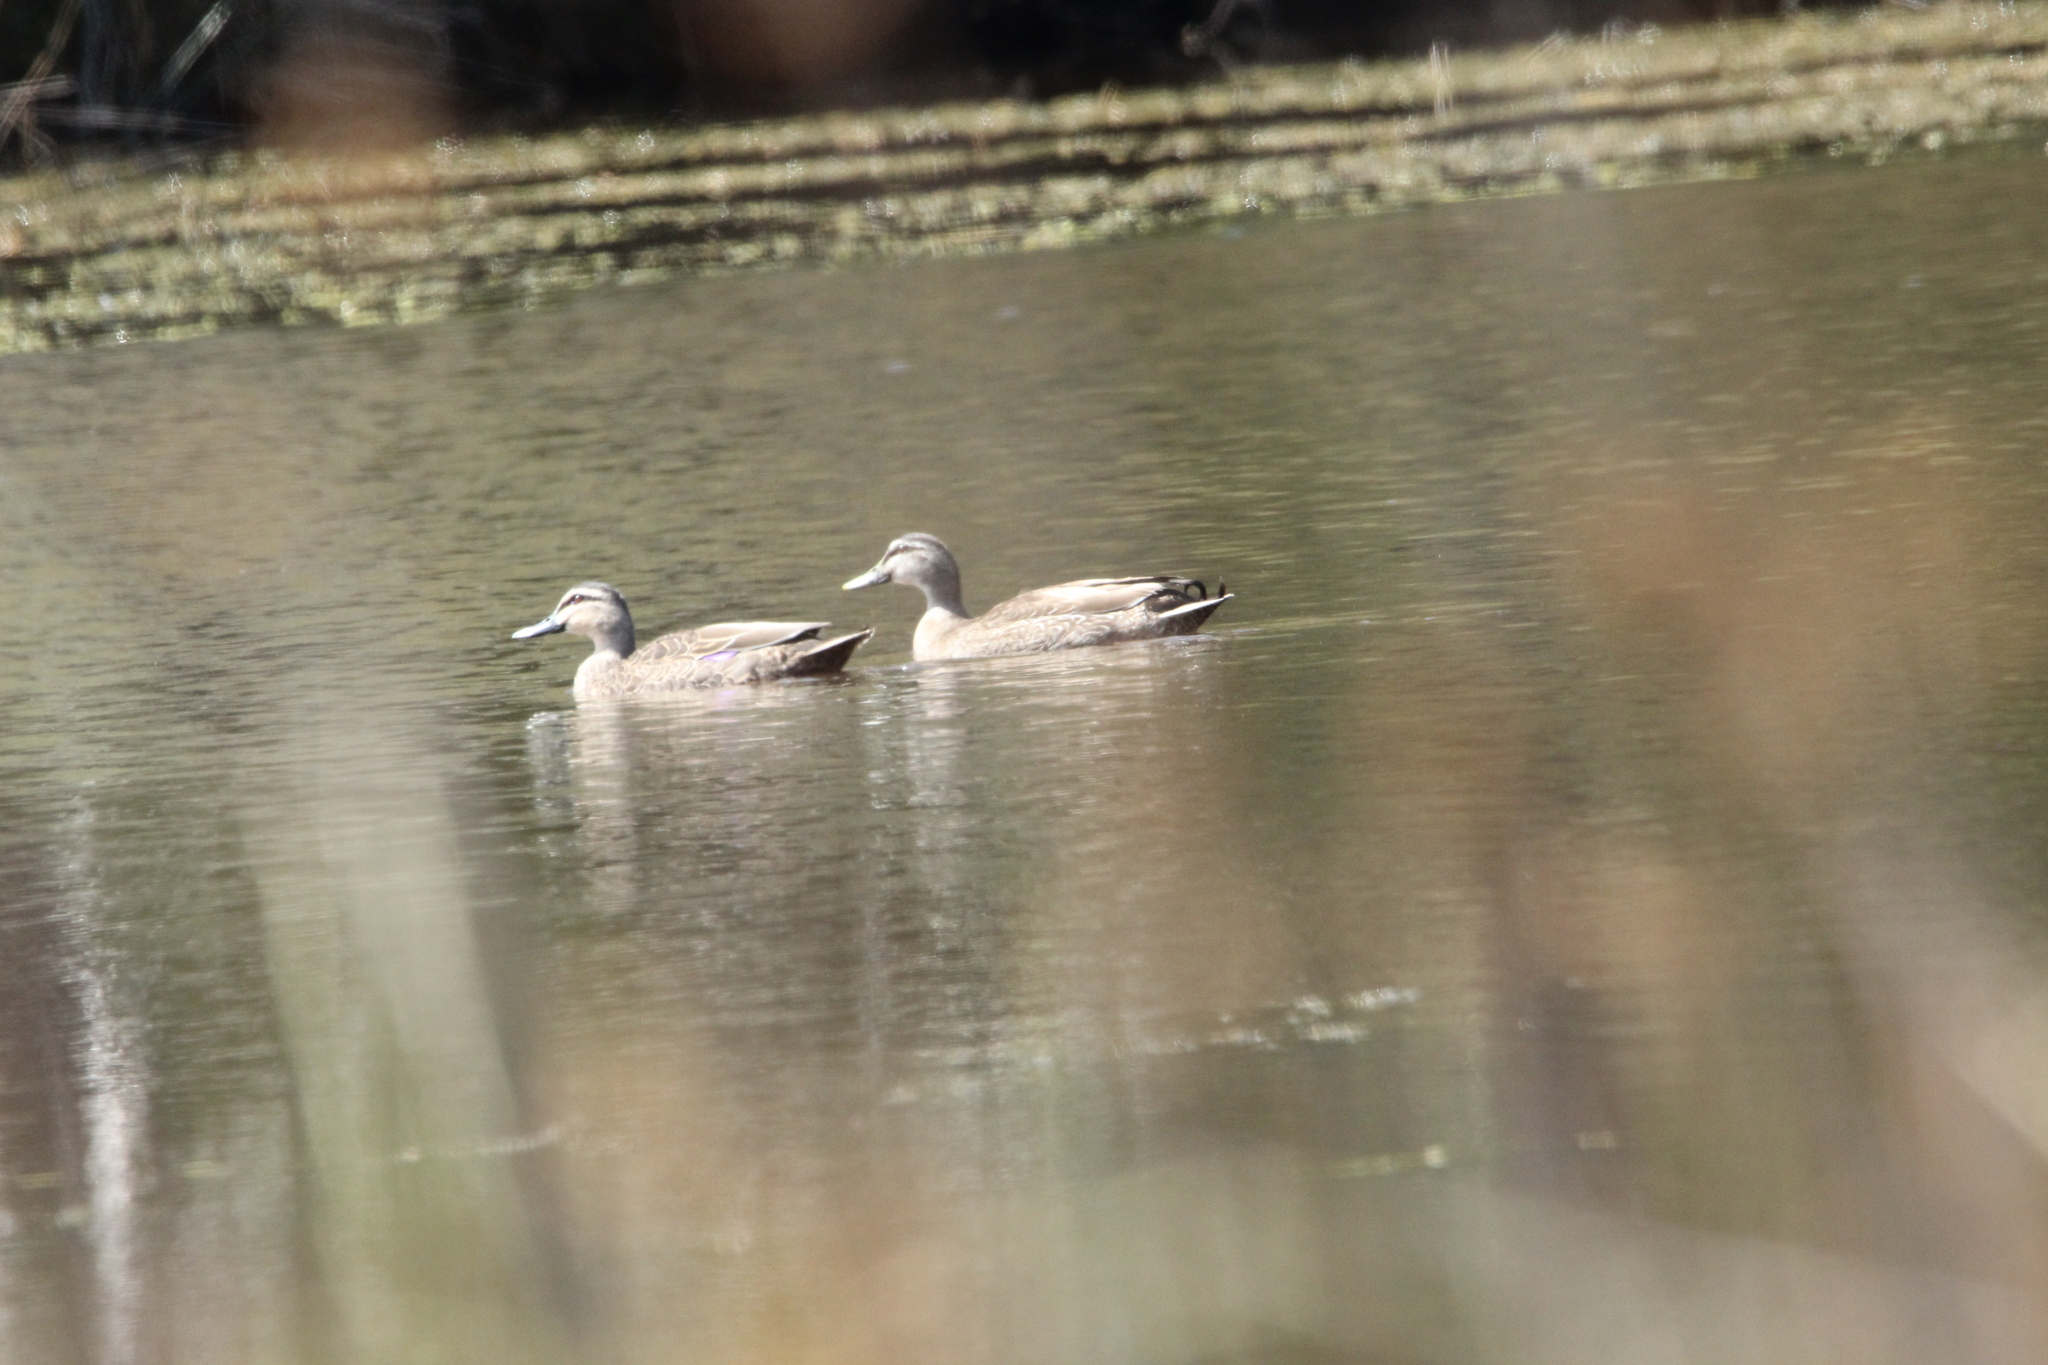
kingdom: Animalia
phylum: Chordata
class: Aves
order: Anseriformes
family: Anatidae
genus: Anas
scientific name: Anas
